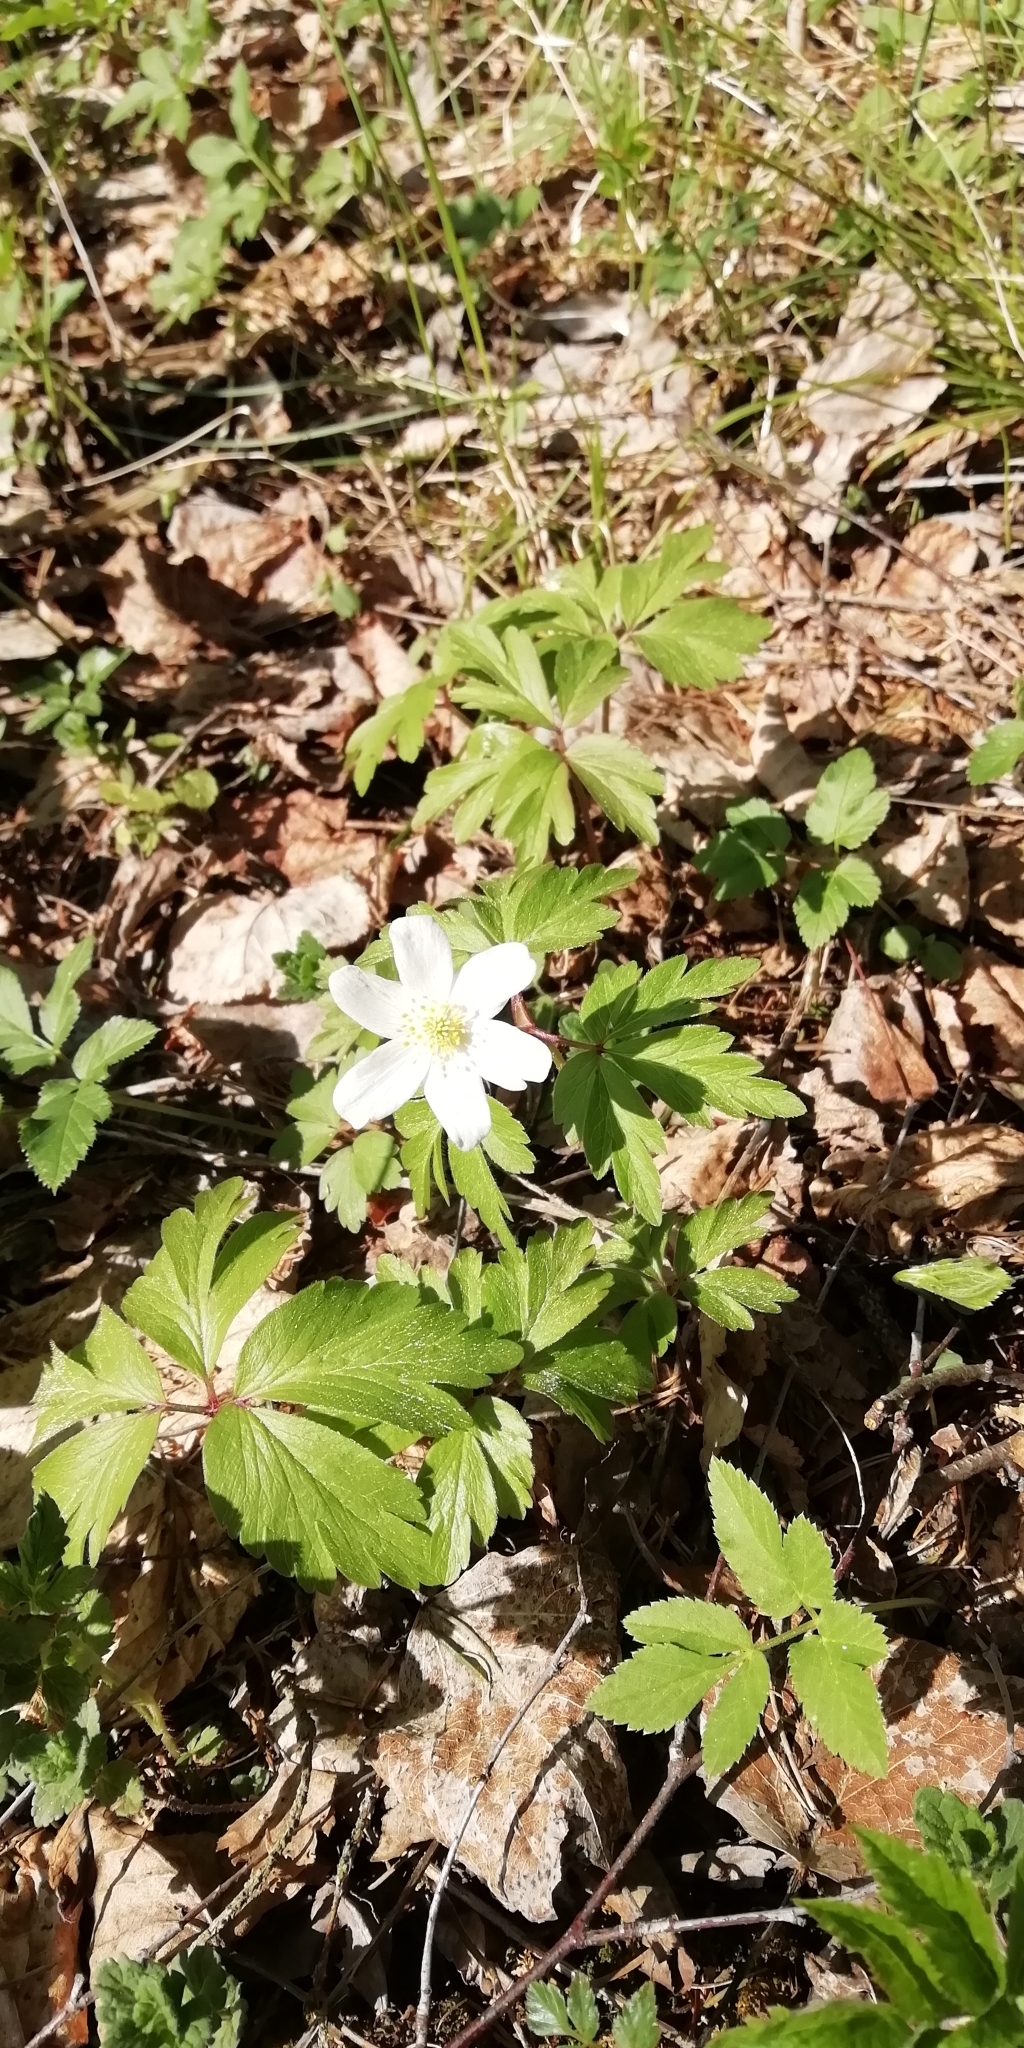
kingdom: Plantae
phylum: Tracheophyta
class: Magnoliopsida
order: Ranunculales
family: Ranunculaceae
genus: Anemone
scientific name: Anemone nemorosa
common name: Wood anemone
